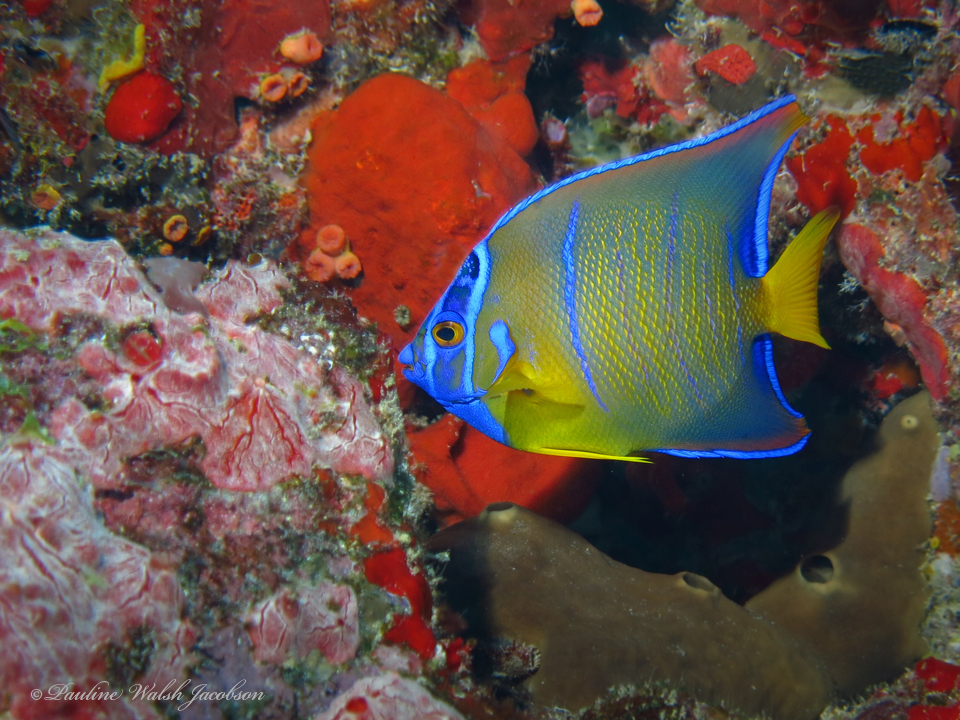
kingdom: Animalia
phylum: Chordata
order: Perciformes
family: Pomacanthidae
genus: Holacanthus
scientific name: Holacanthus ciliaris
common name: Queen angelfish
